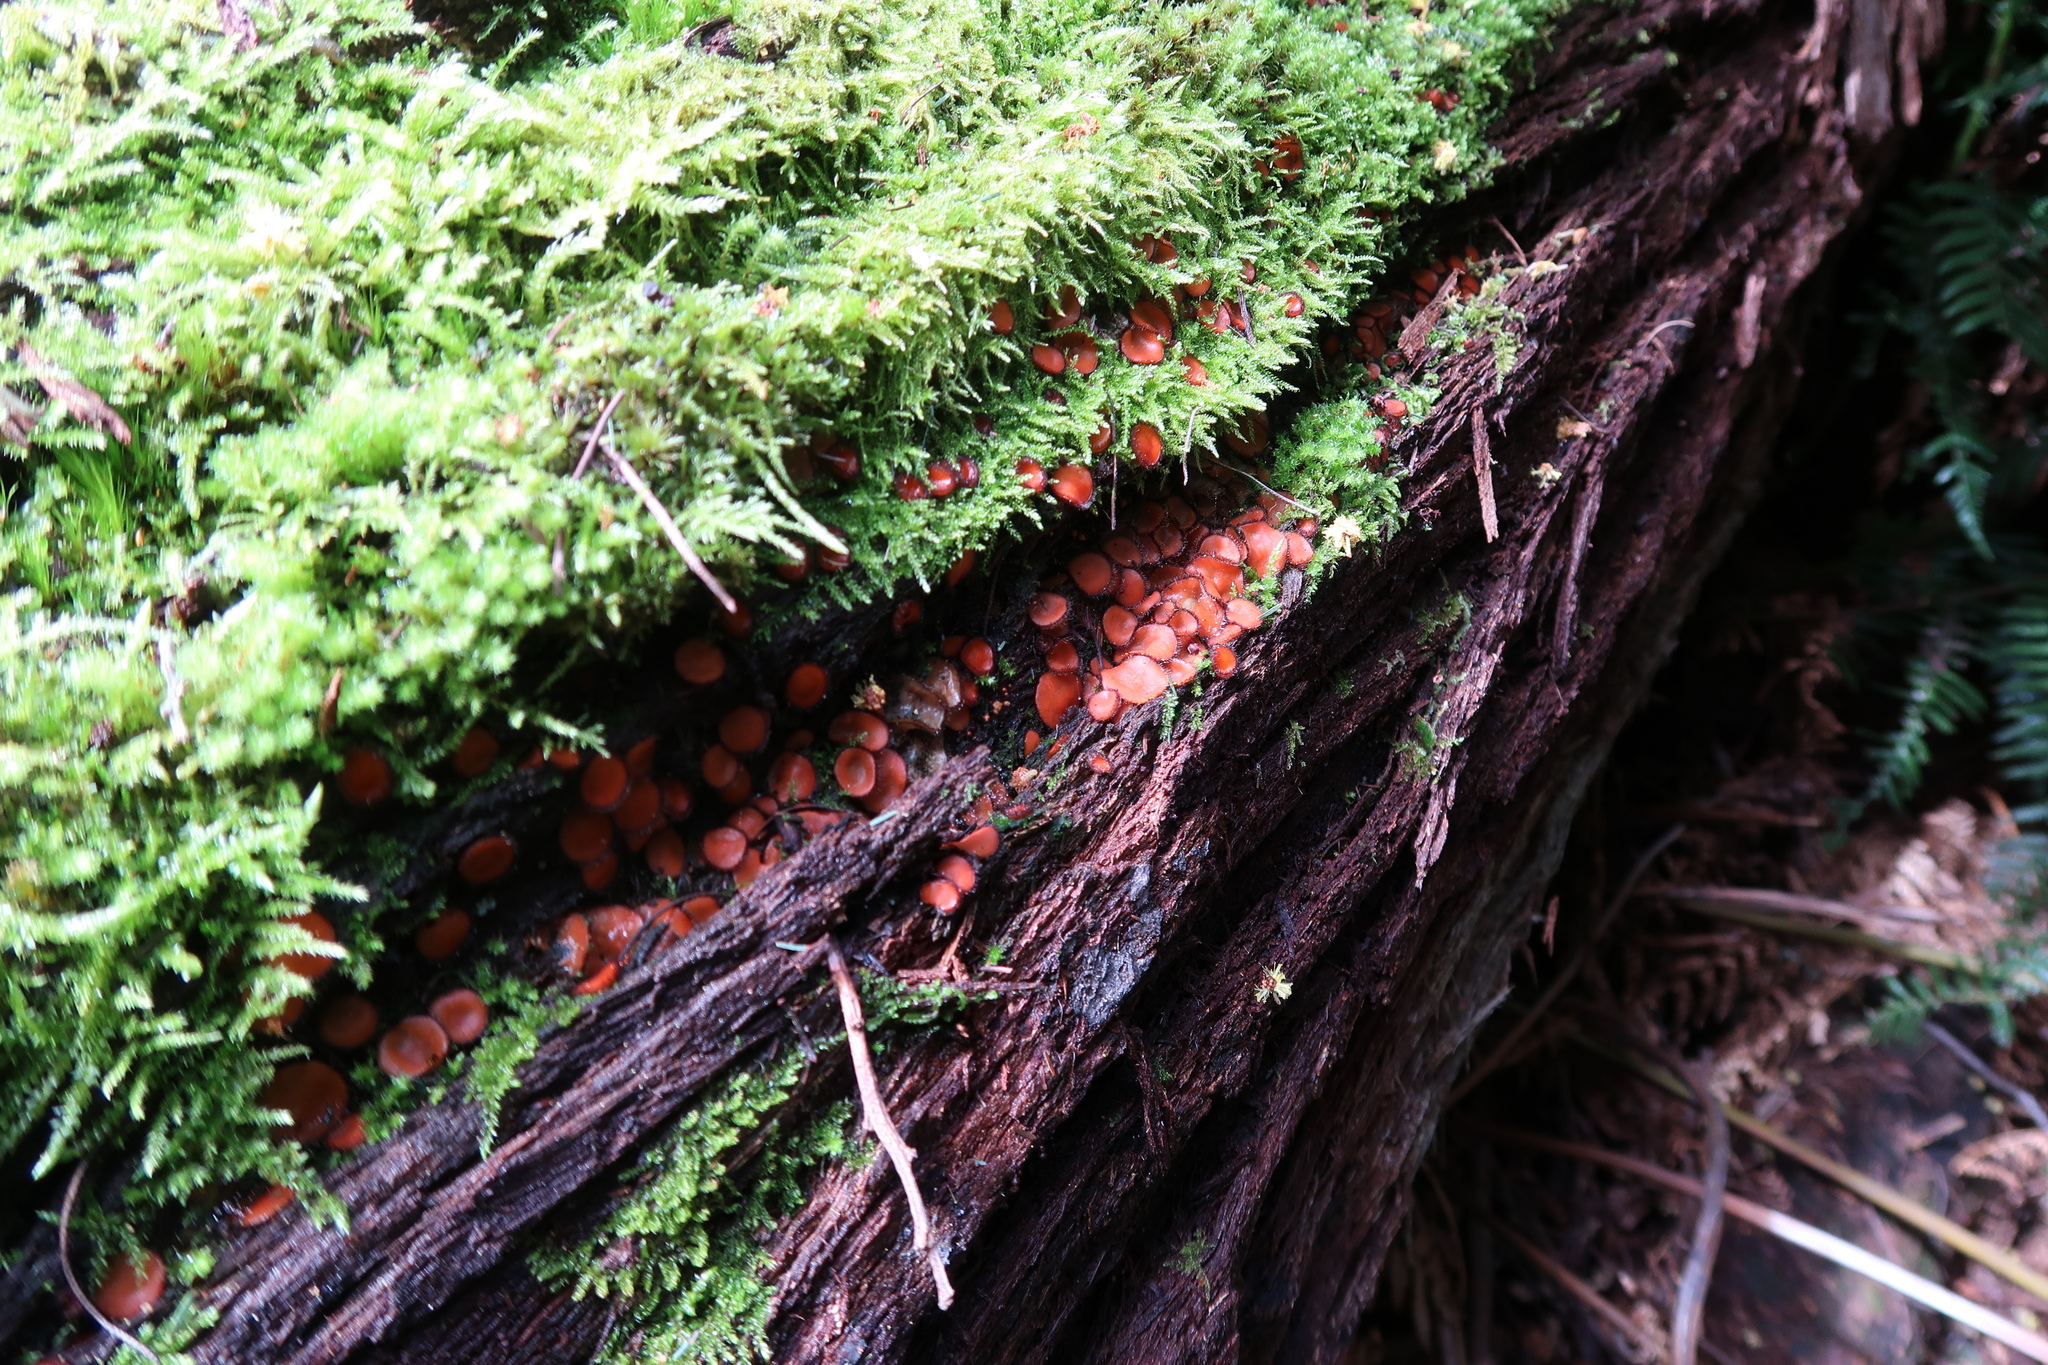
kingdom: Fungi
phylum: Ascomycota
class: Pezizomycetes
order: Pezizales
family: Pyronemataceae
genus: Scutellinia
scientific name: Scutellinia
